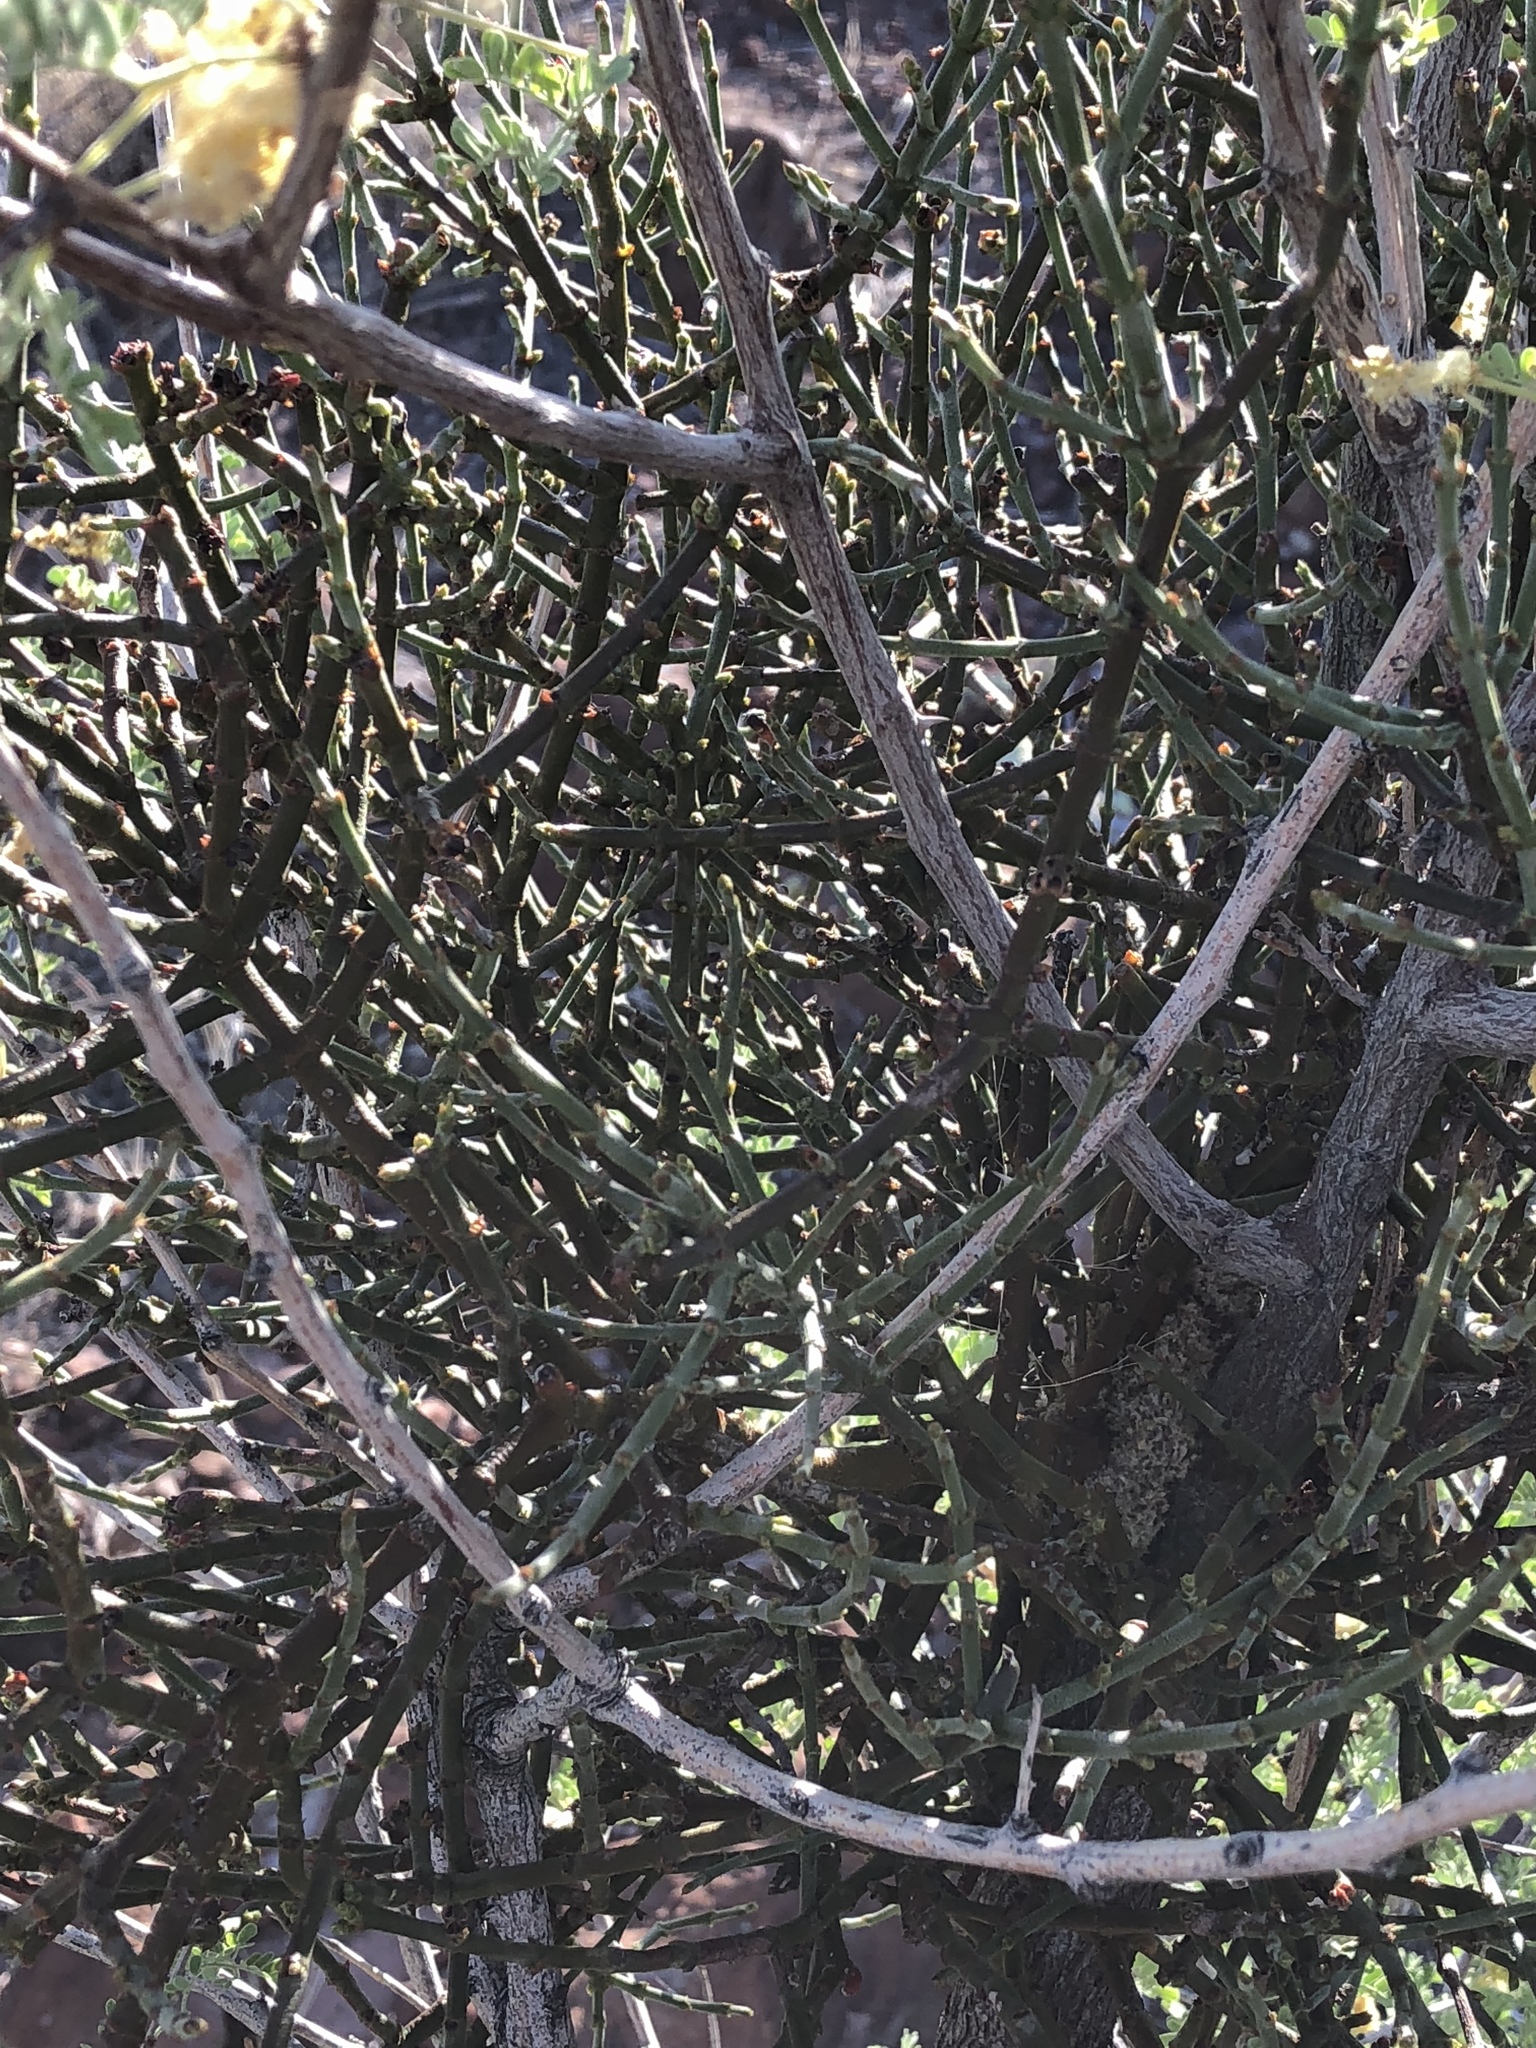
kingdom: Plantae
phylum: Tracheophyta
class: Magnoliopsida
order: Santalales
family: Viscaceae
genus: Phoradendron
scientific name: Phoradendron californicum
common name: Acacia mistletoe
